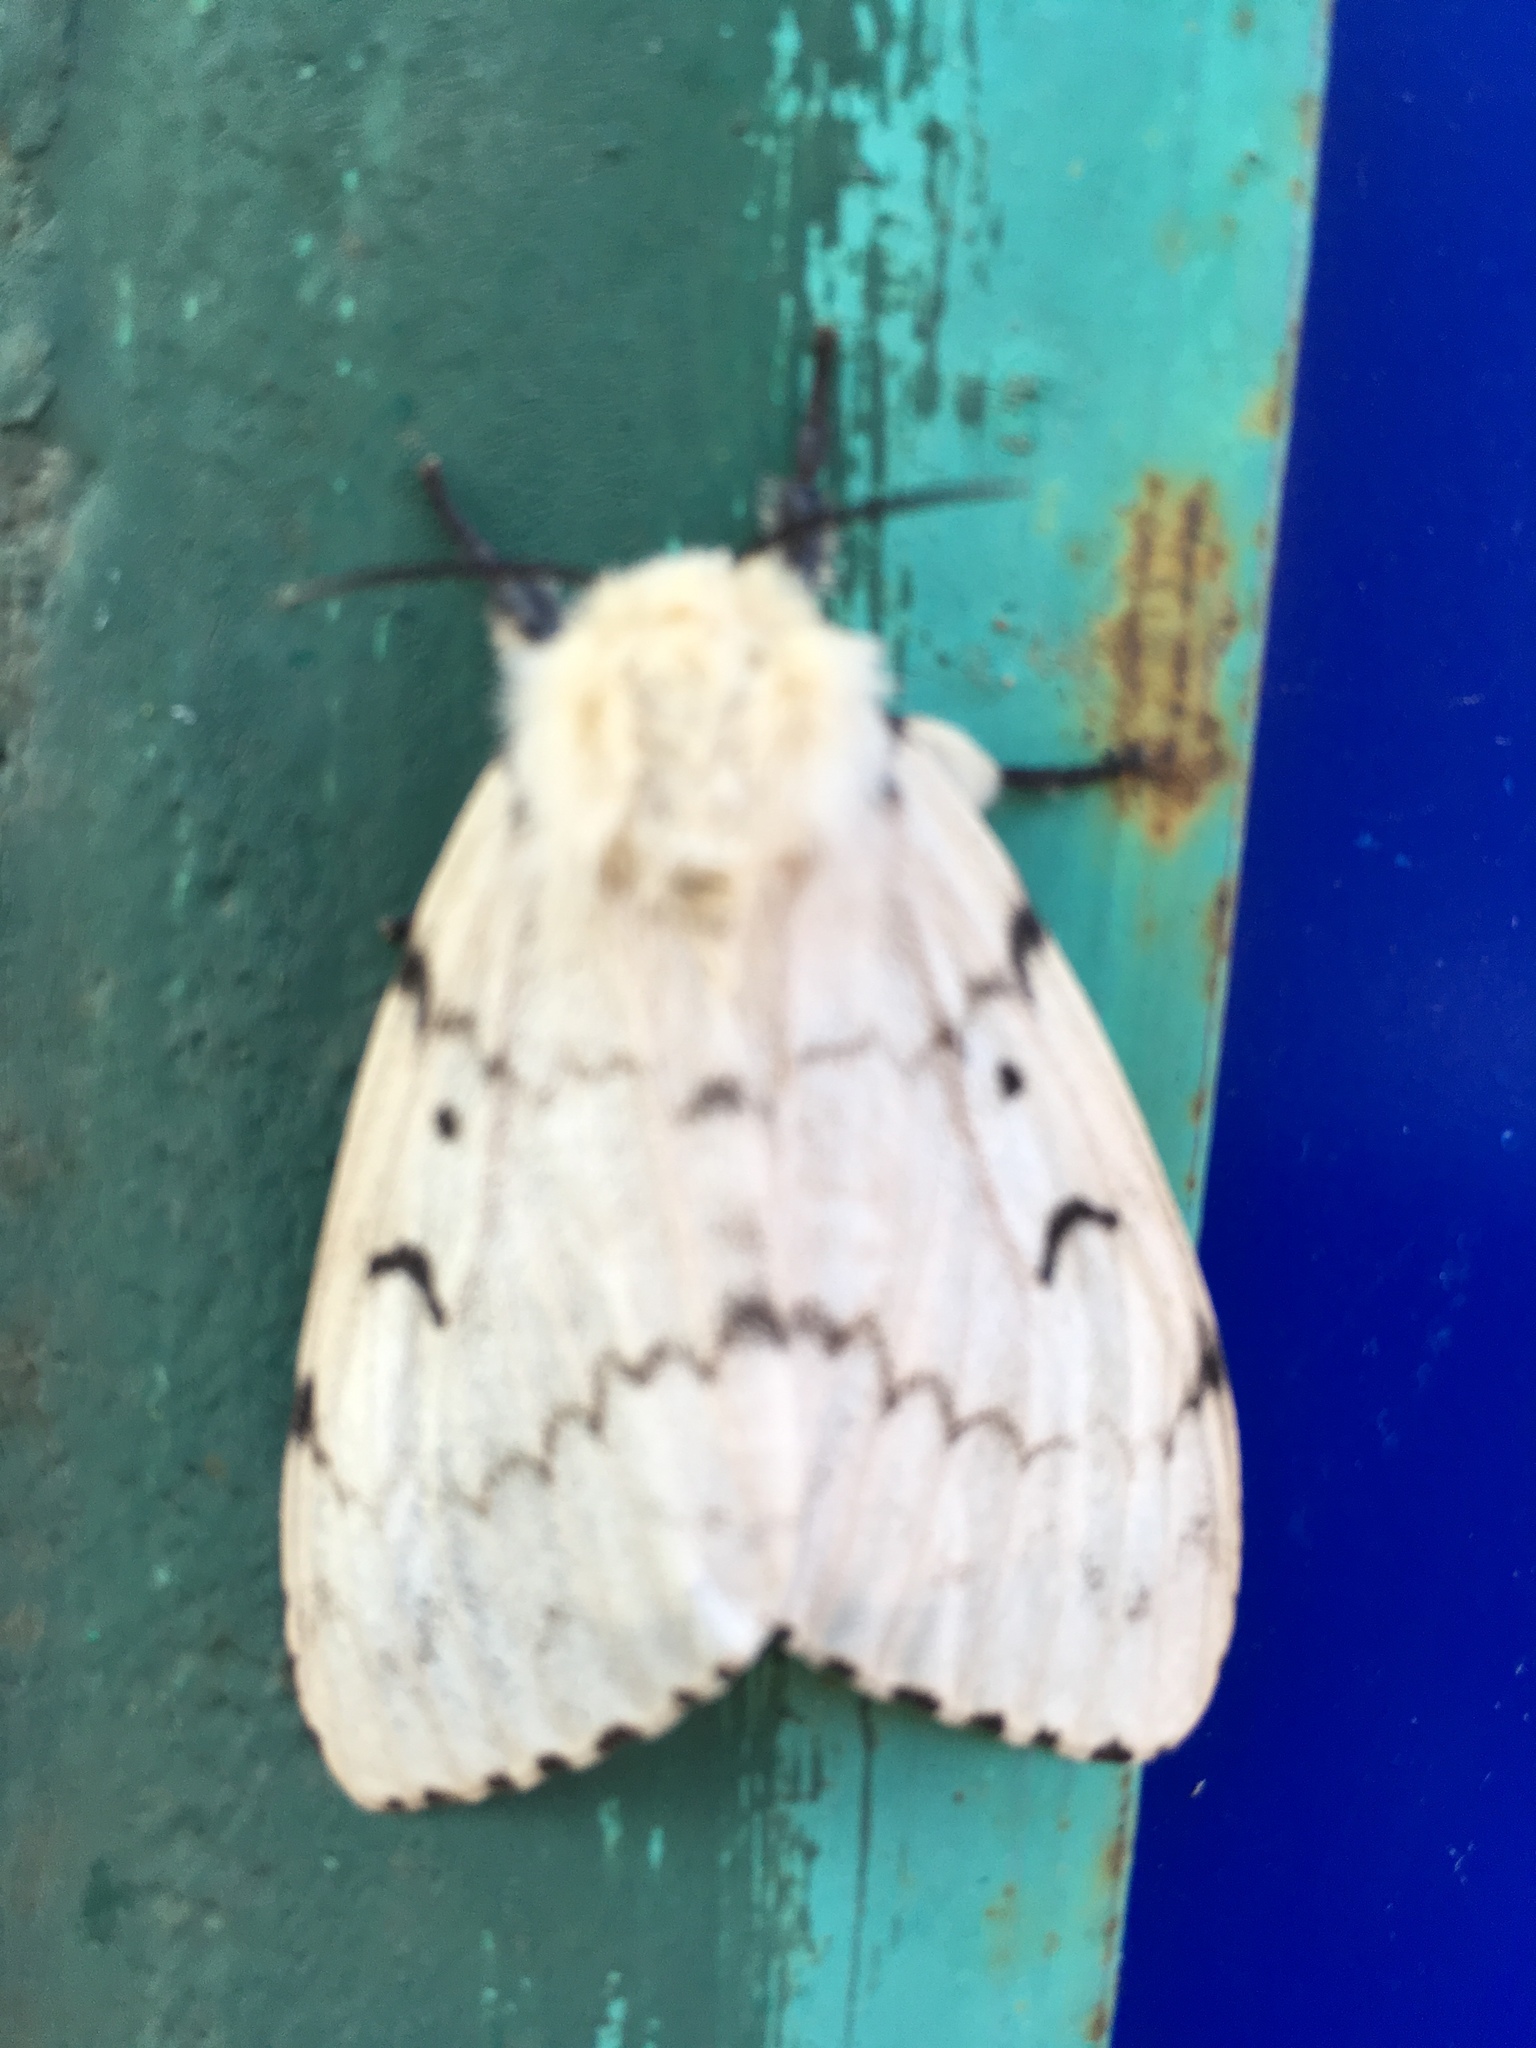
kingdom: Animalia
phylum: Arthropoda
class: Insecta
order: Lepidoptera
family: Erebidae
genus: Lymantria
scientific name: Lymantria dispar
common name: Gypsy moth
